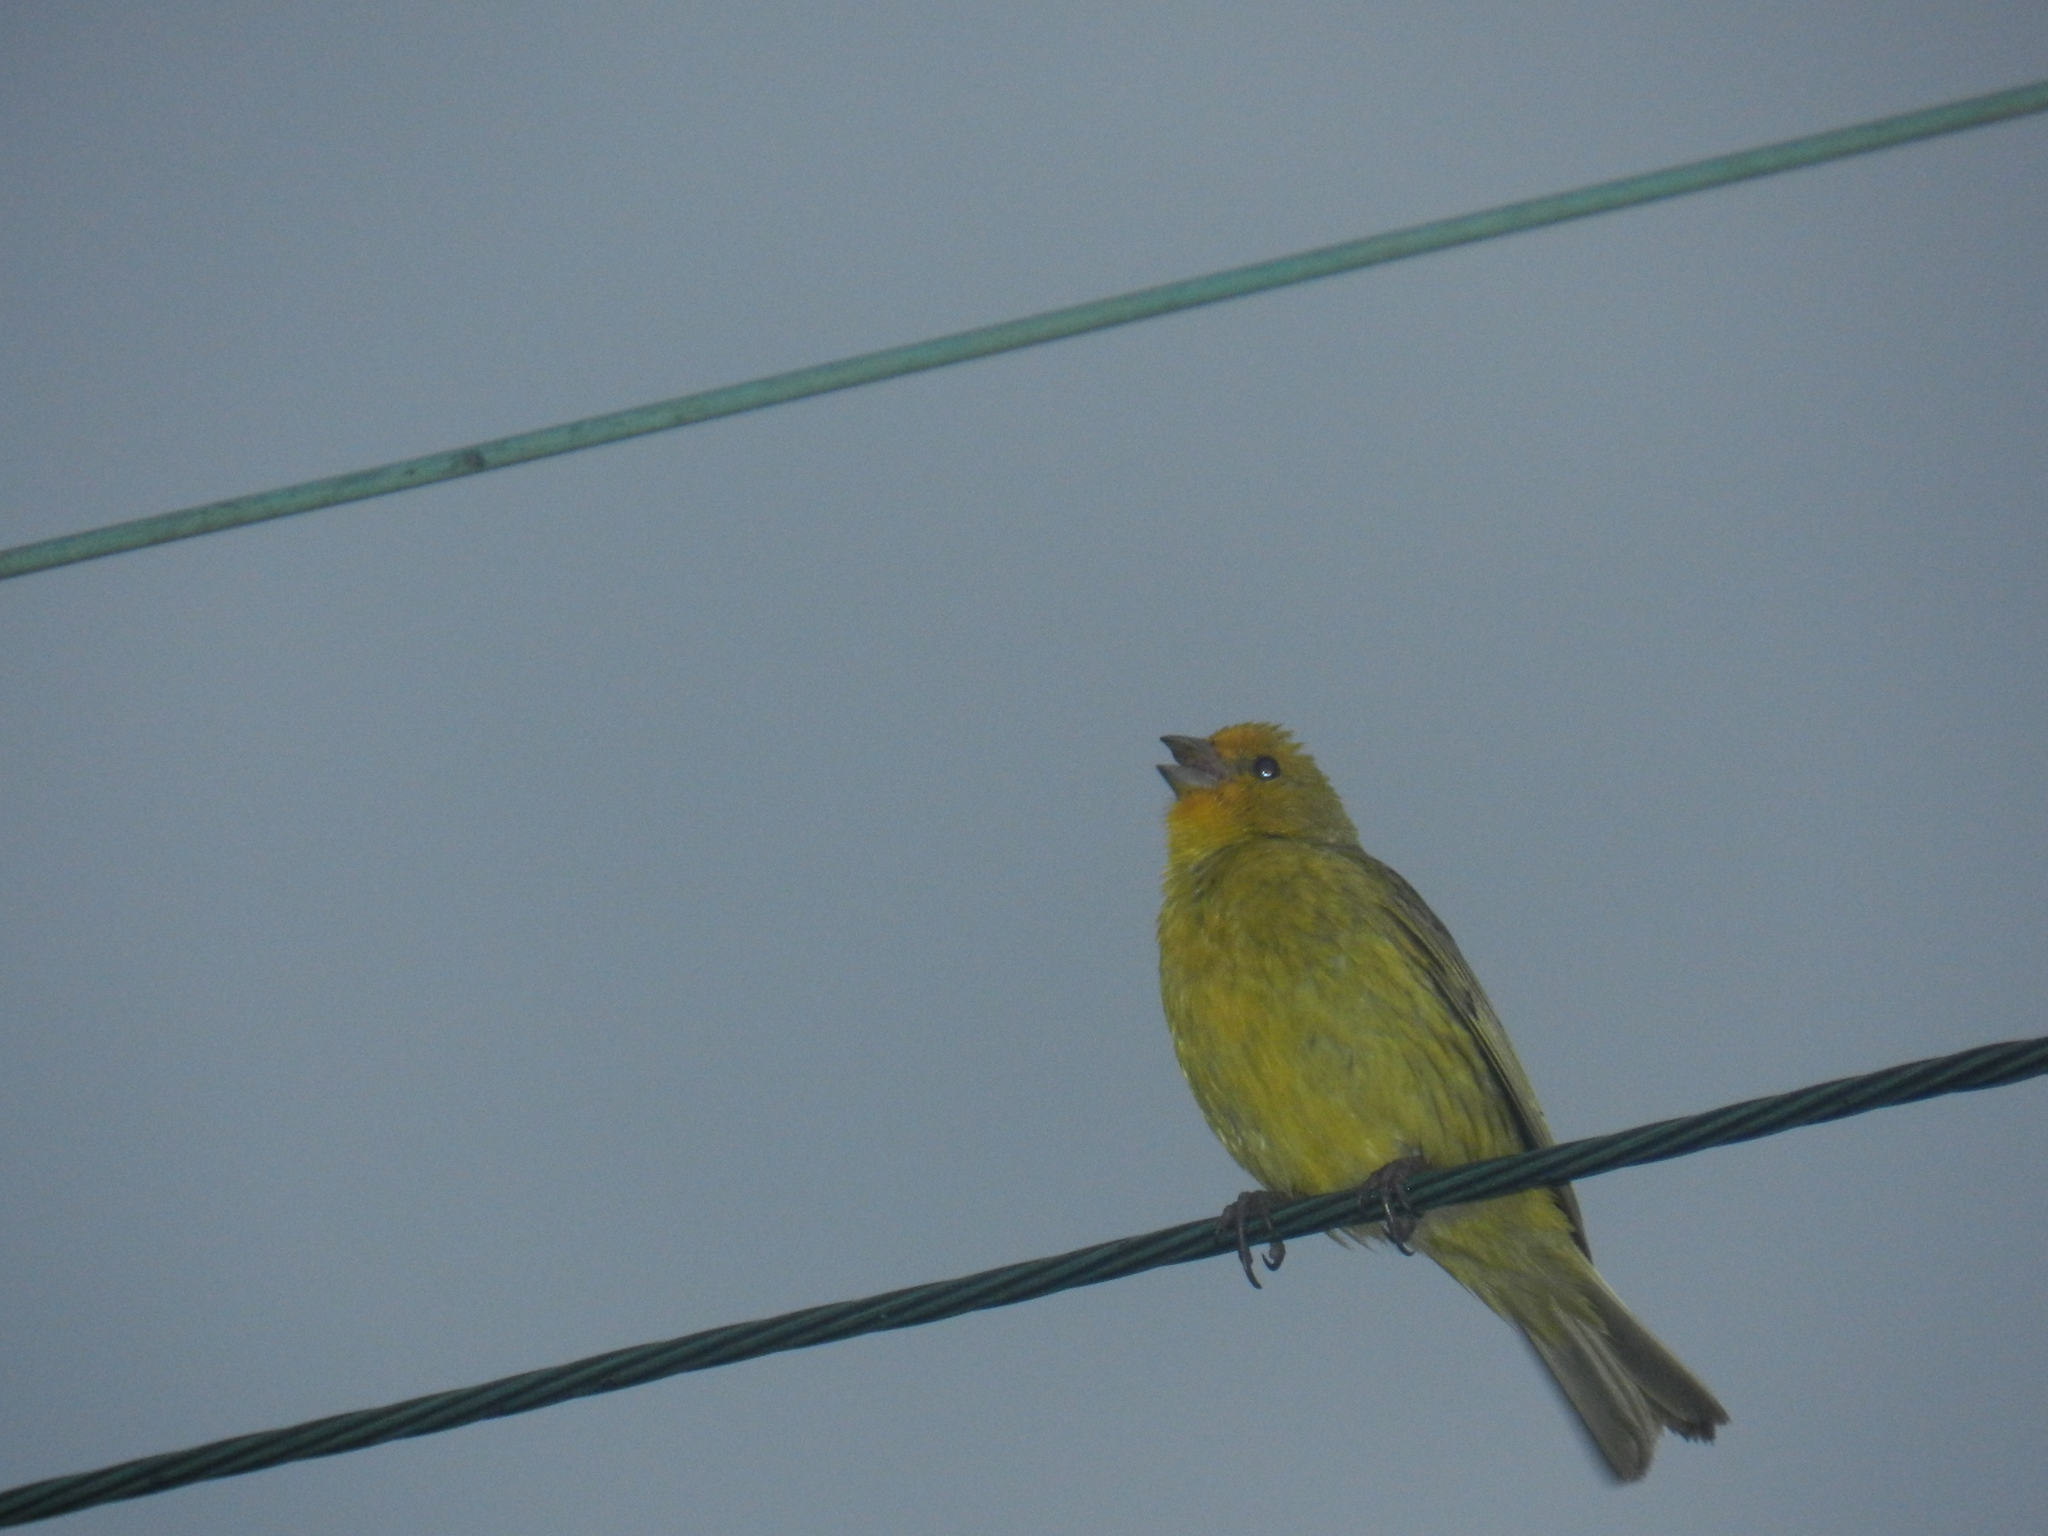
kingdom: Animalia
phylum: Chordata
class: Aves
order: Passeriformes
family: Thraupidae
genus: Sicalis
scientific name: Sicalis flaveola
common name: Saffron finch
